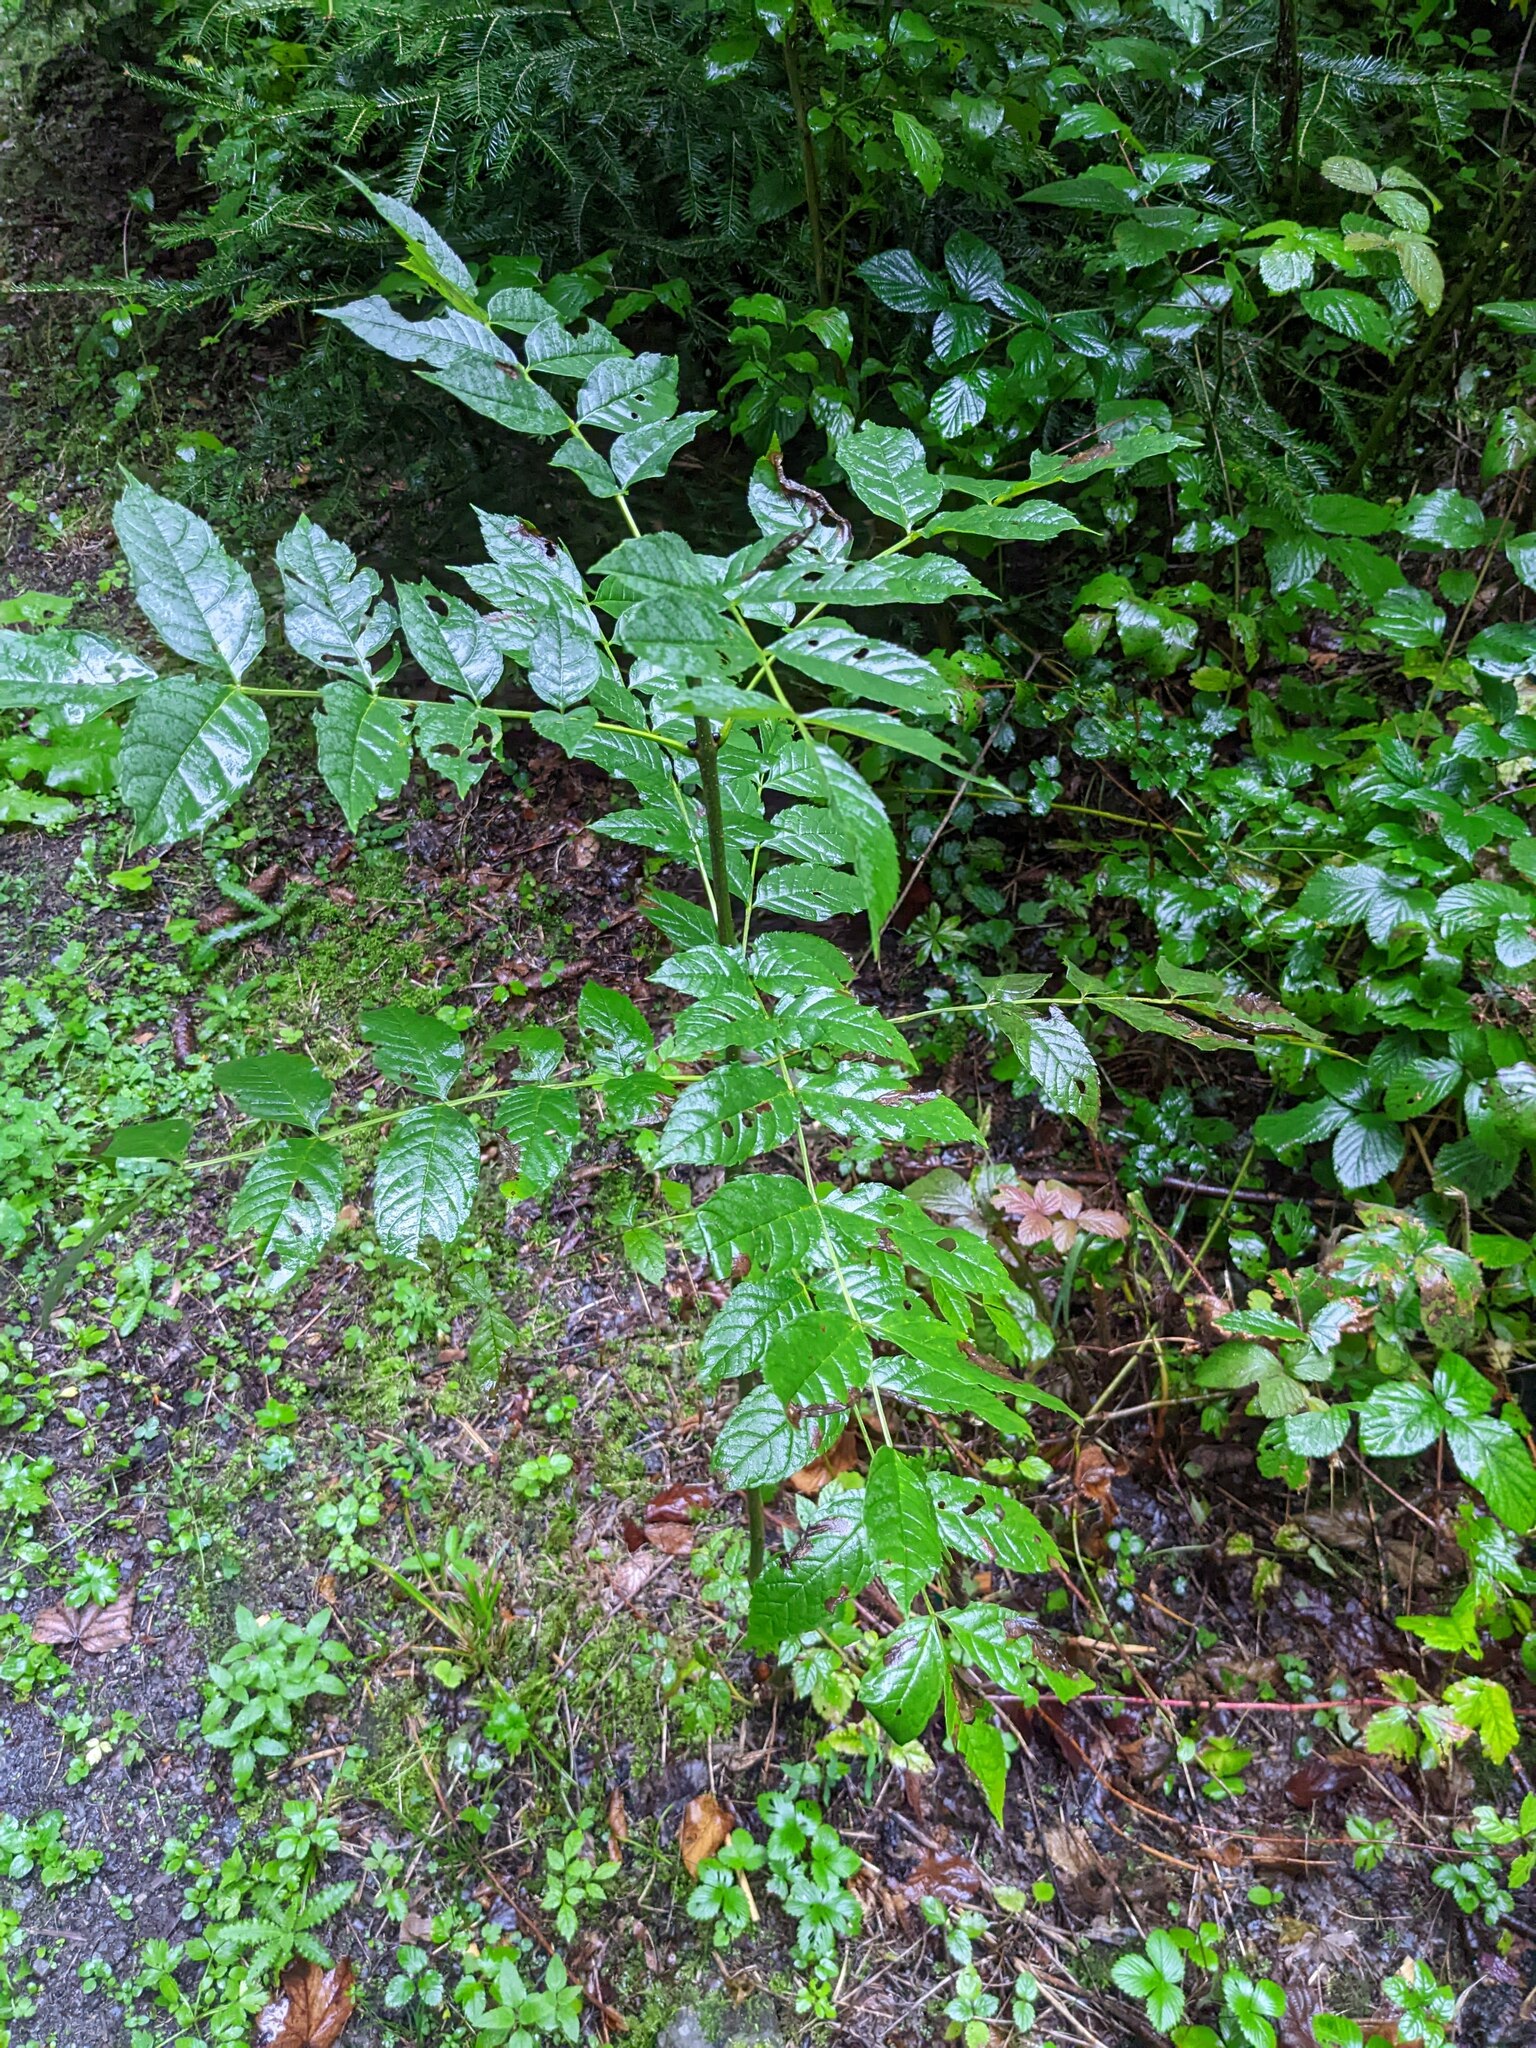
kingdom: Plantae
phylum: Tracheophyta
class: Magnoliopsida
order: Lamiales
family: Oleaceae
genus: Fraxinus
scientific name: Fraxinus excelsior
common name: European ash
